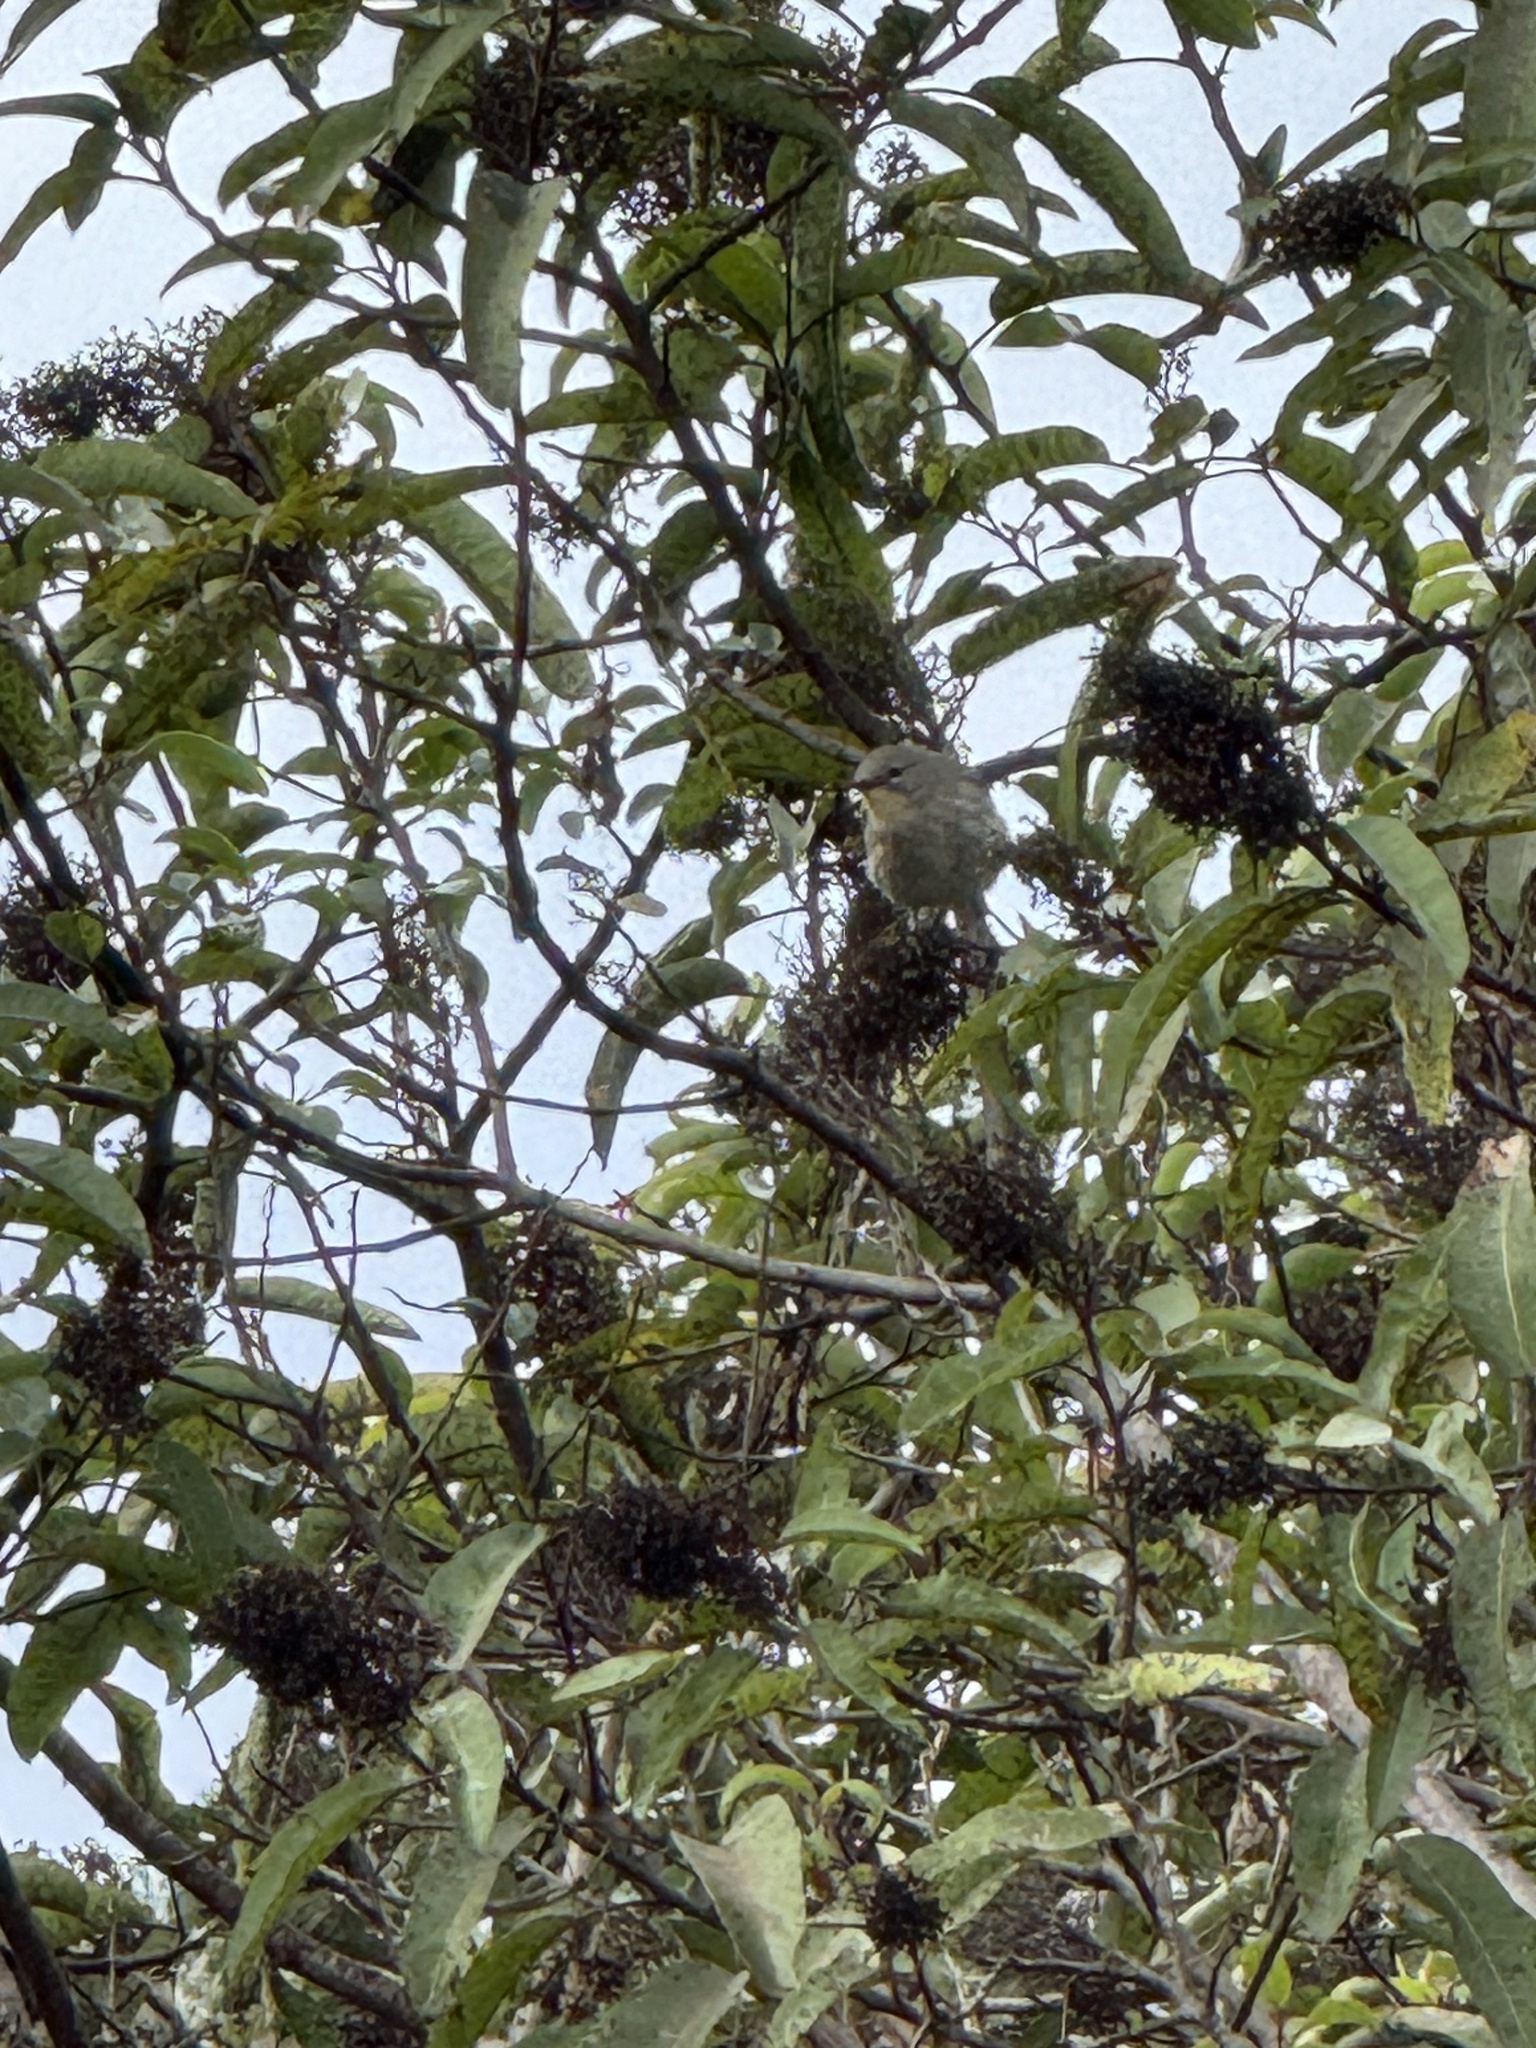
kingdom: Animalia
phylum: Chordata
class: Aves
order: Passeriformes
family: Parulidae
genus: Setophaga
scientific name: Setophaga coronata
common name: Myrtle warbler
